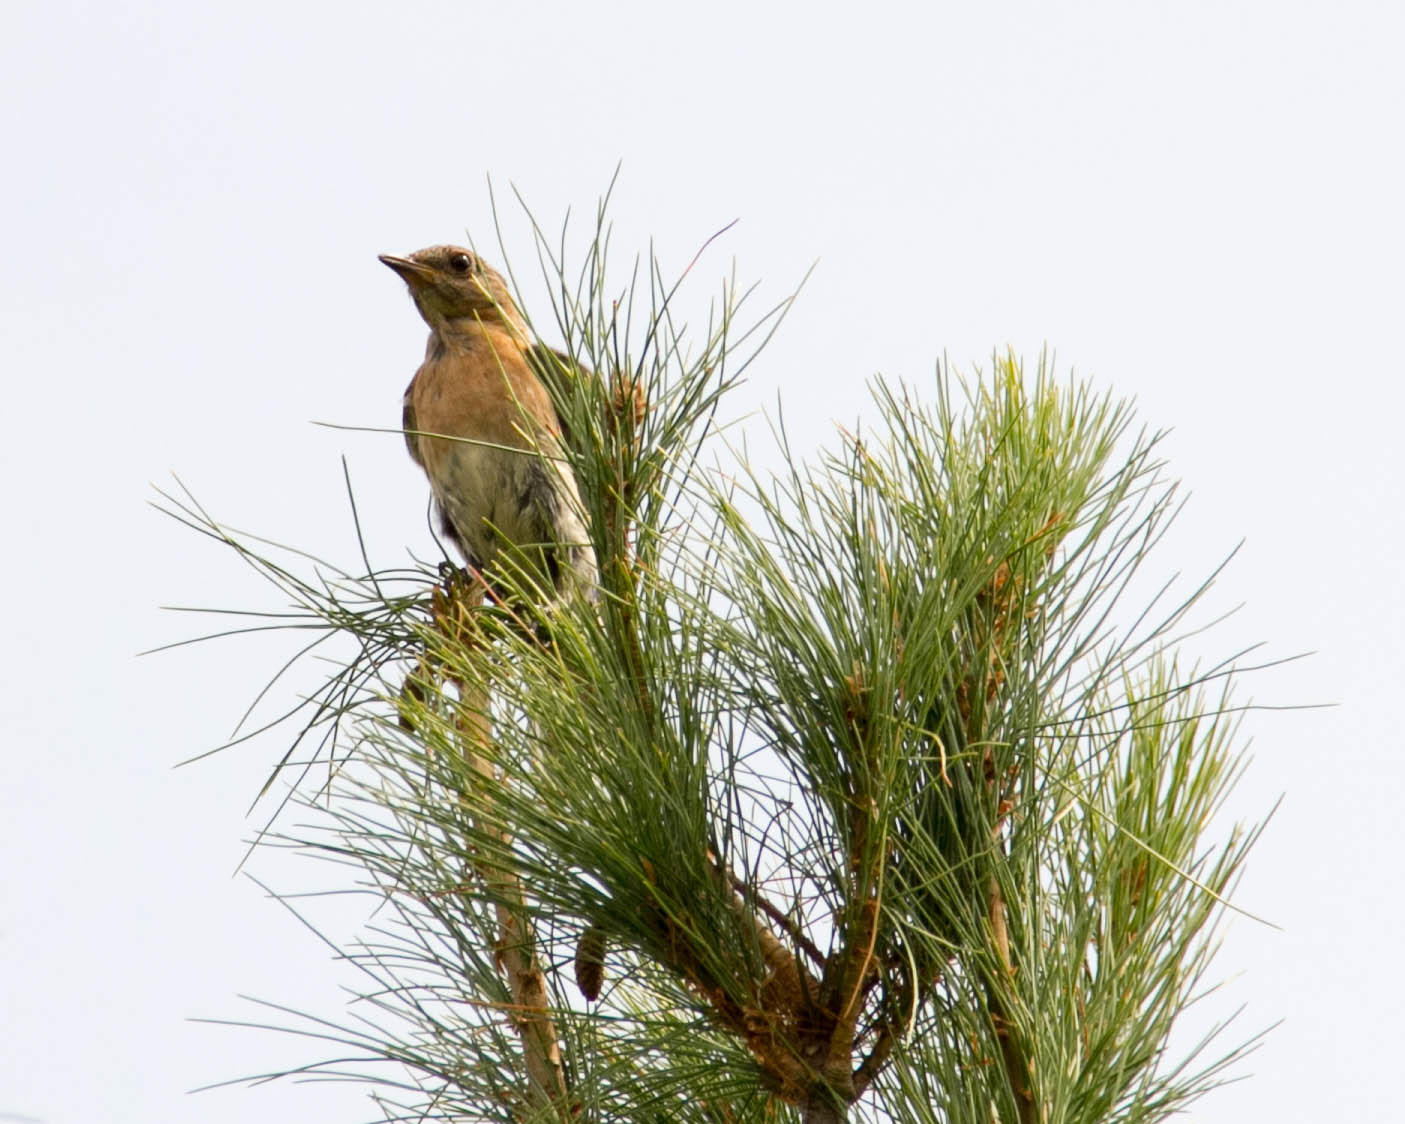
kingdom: Animalia
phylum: Chordata
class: Aves
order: Passeriformes
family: Turdidae
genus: Sialia
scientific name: Sialia sialis
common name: Eastern bluebird
